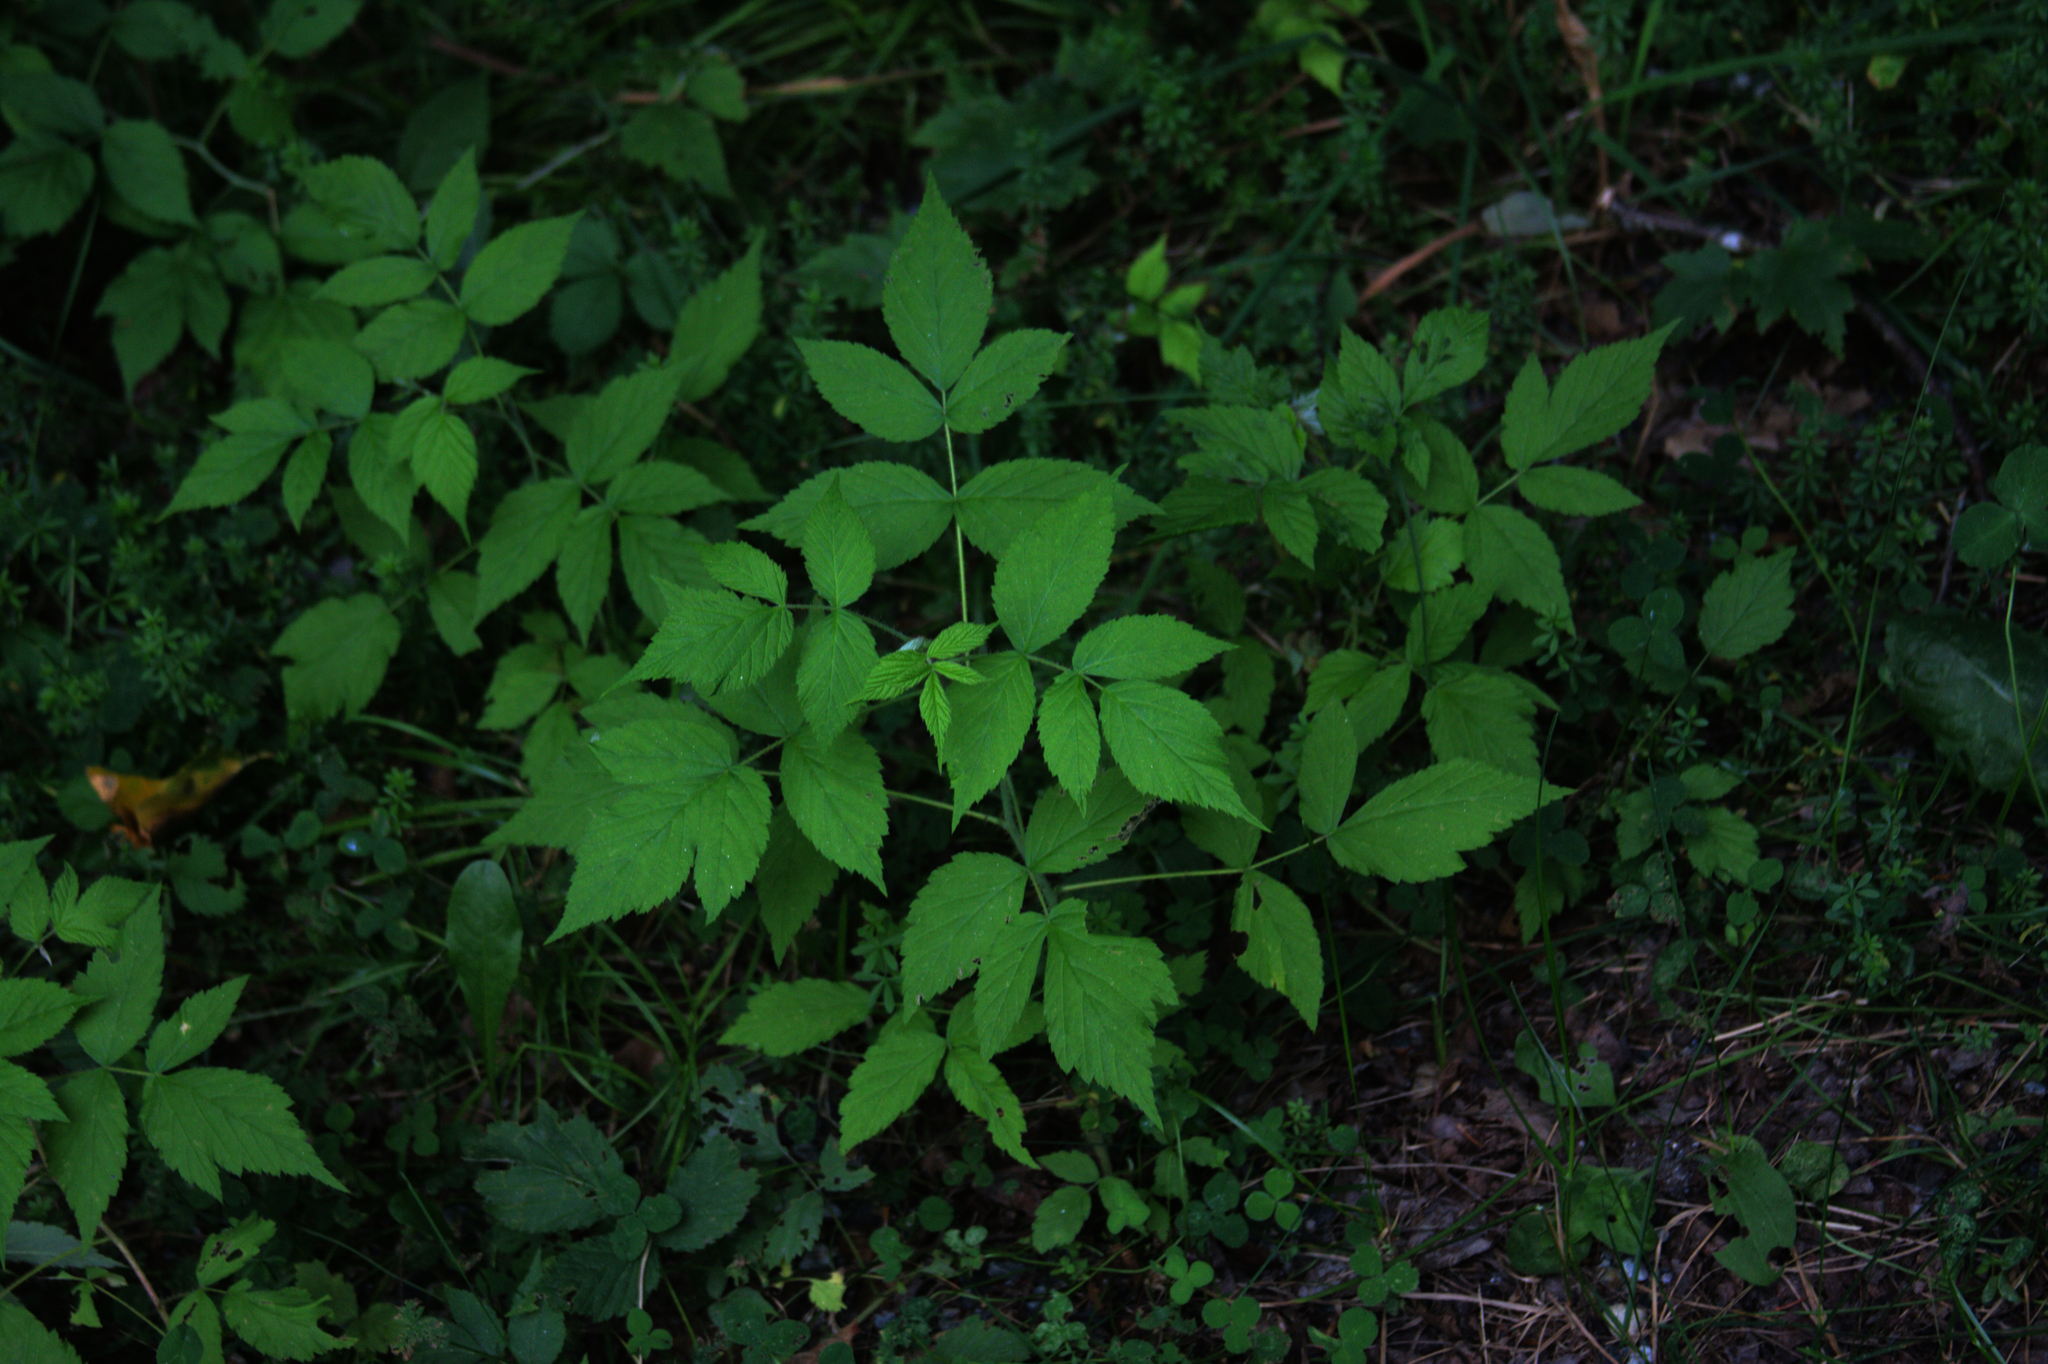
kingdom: Plantae
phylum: Tracheophyta
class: Magnoliopsida
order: Rosales
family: Rosaceae
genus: Rubus
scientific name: Rubus idaeus
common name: Raspberry
